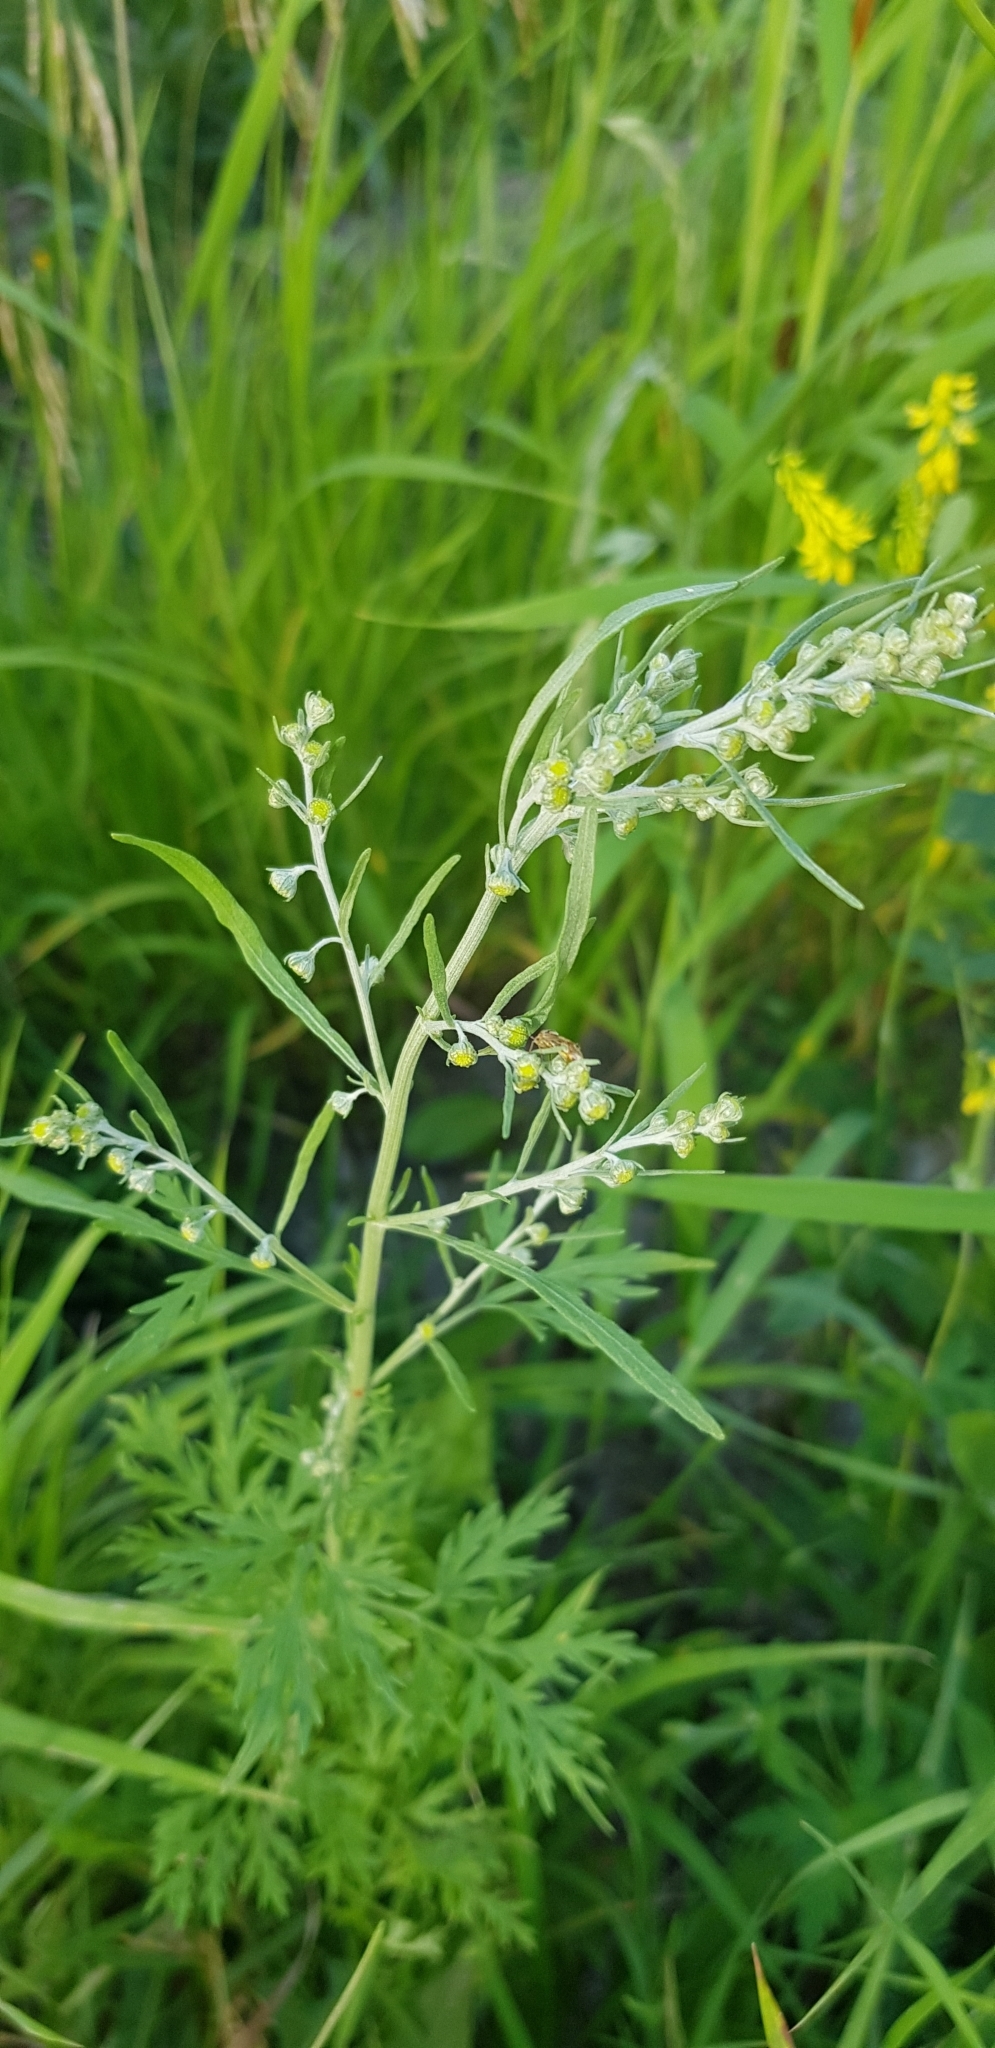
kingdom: Plantae
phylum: Tracheophyta
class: Magnoliopsida
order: Asterales
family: Asteraceae
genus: Artemisia
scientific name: Artemisia gmelinii
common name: Gmelin's wormwood
